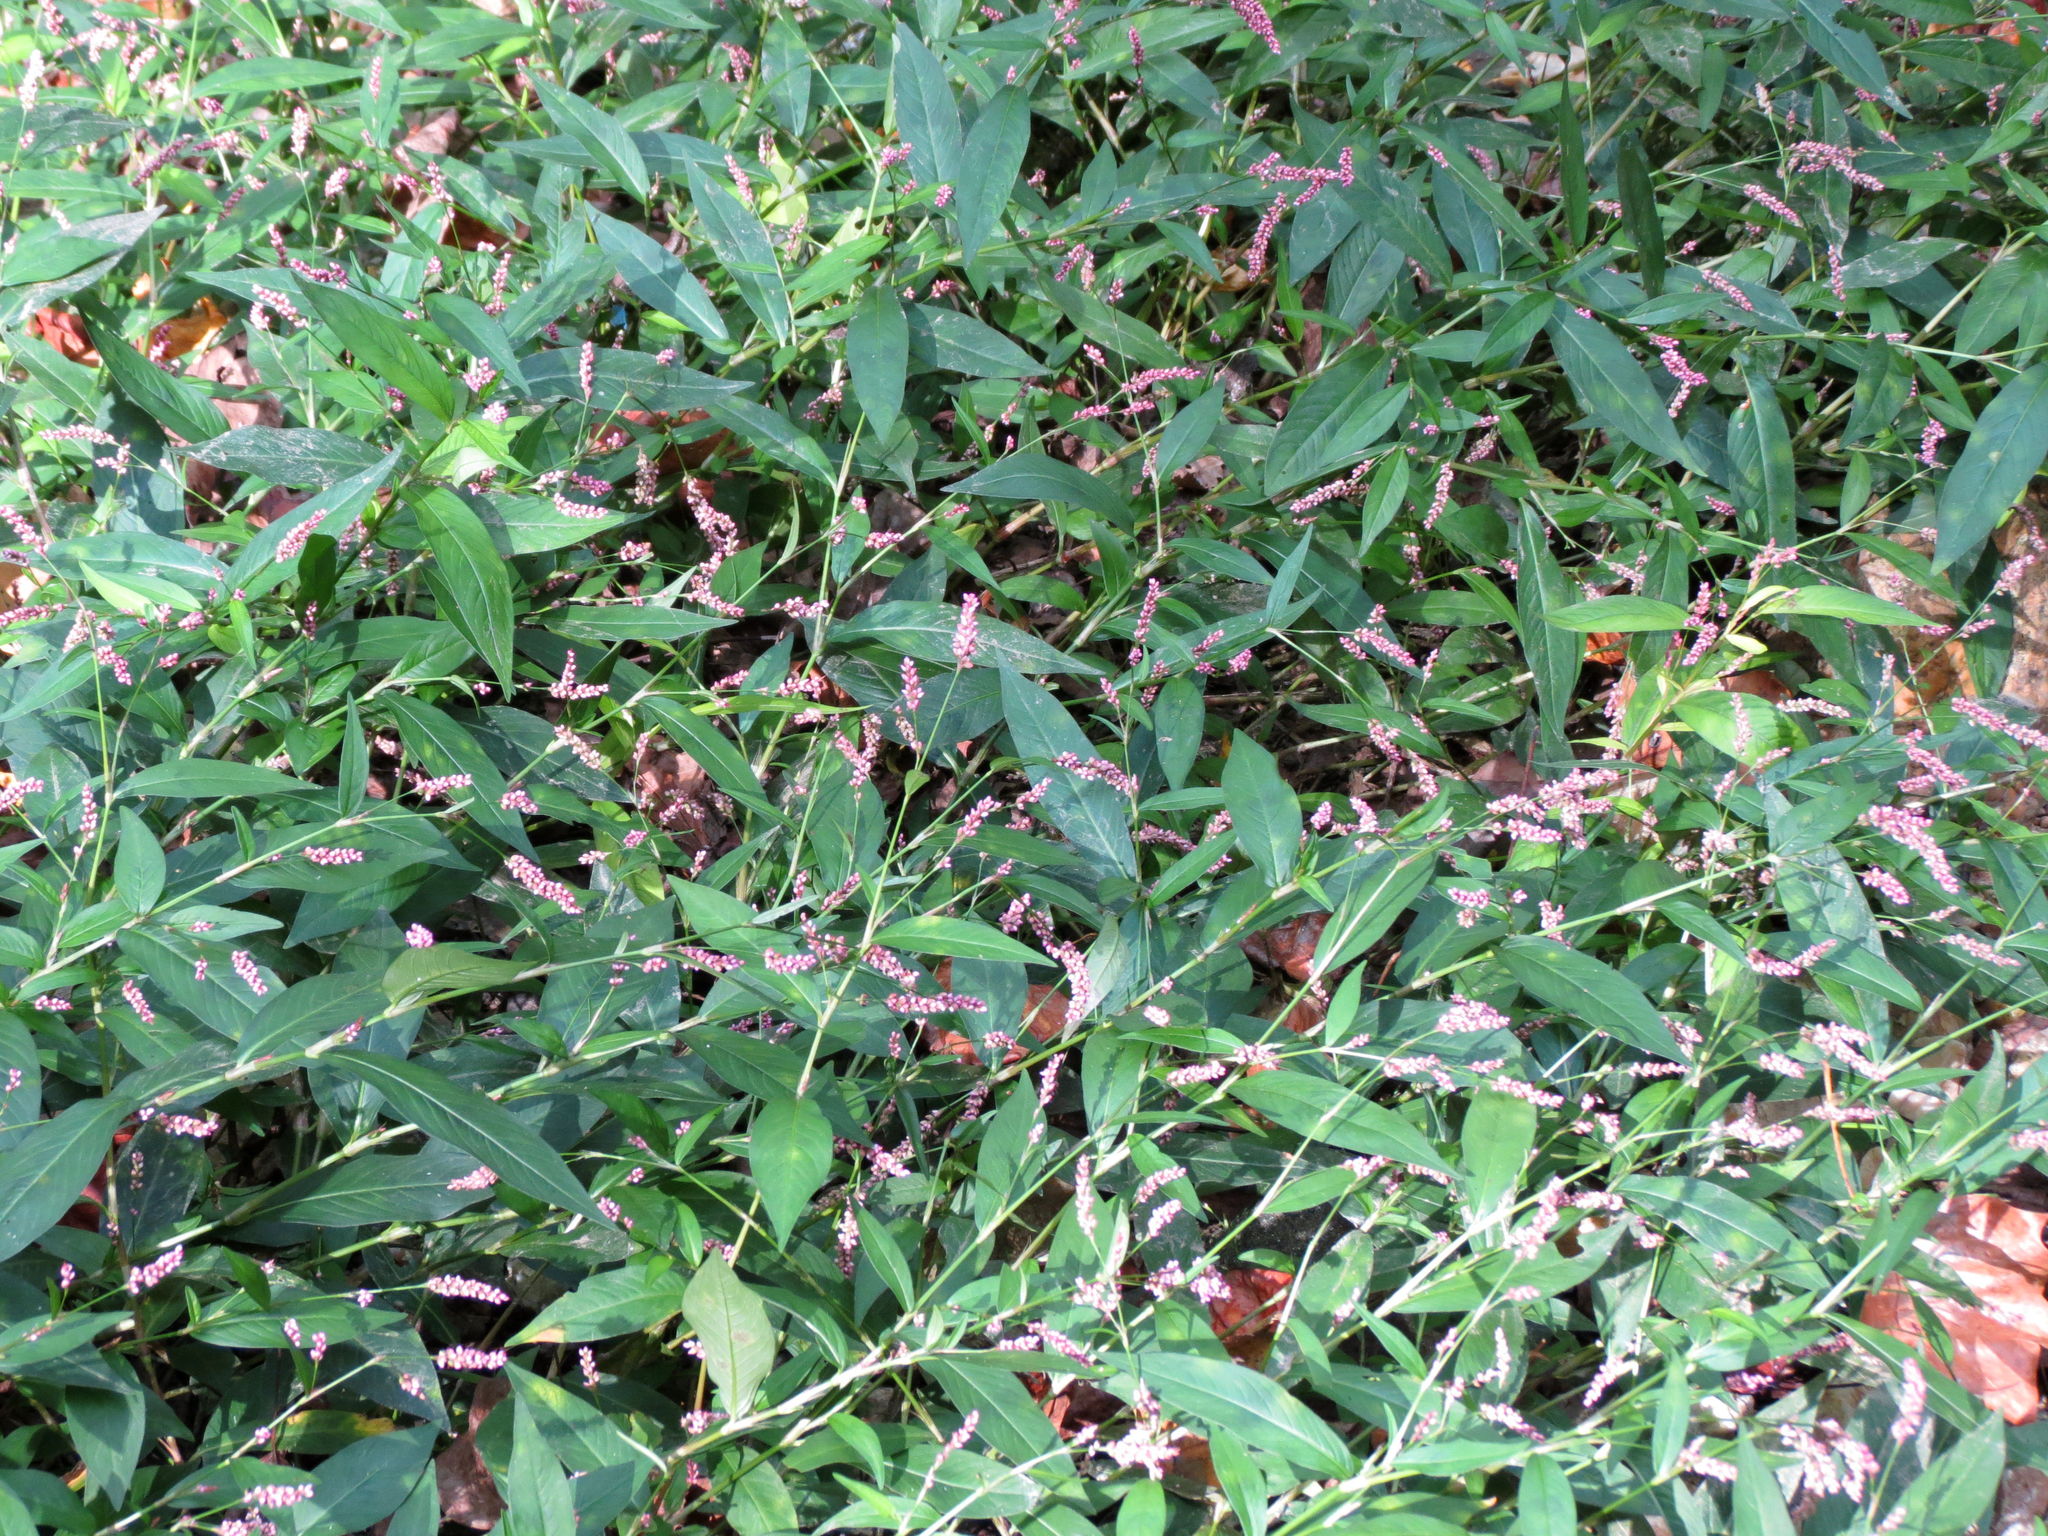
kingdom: Plantae
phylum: Tracheophyta
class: Magnoliopsida
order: Caryophyllales
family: Polygonaceae
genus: Persicaria
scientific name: Persicaria longiseta
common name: Bristly lady's-thumb
